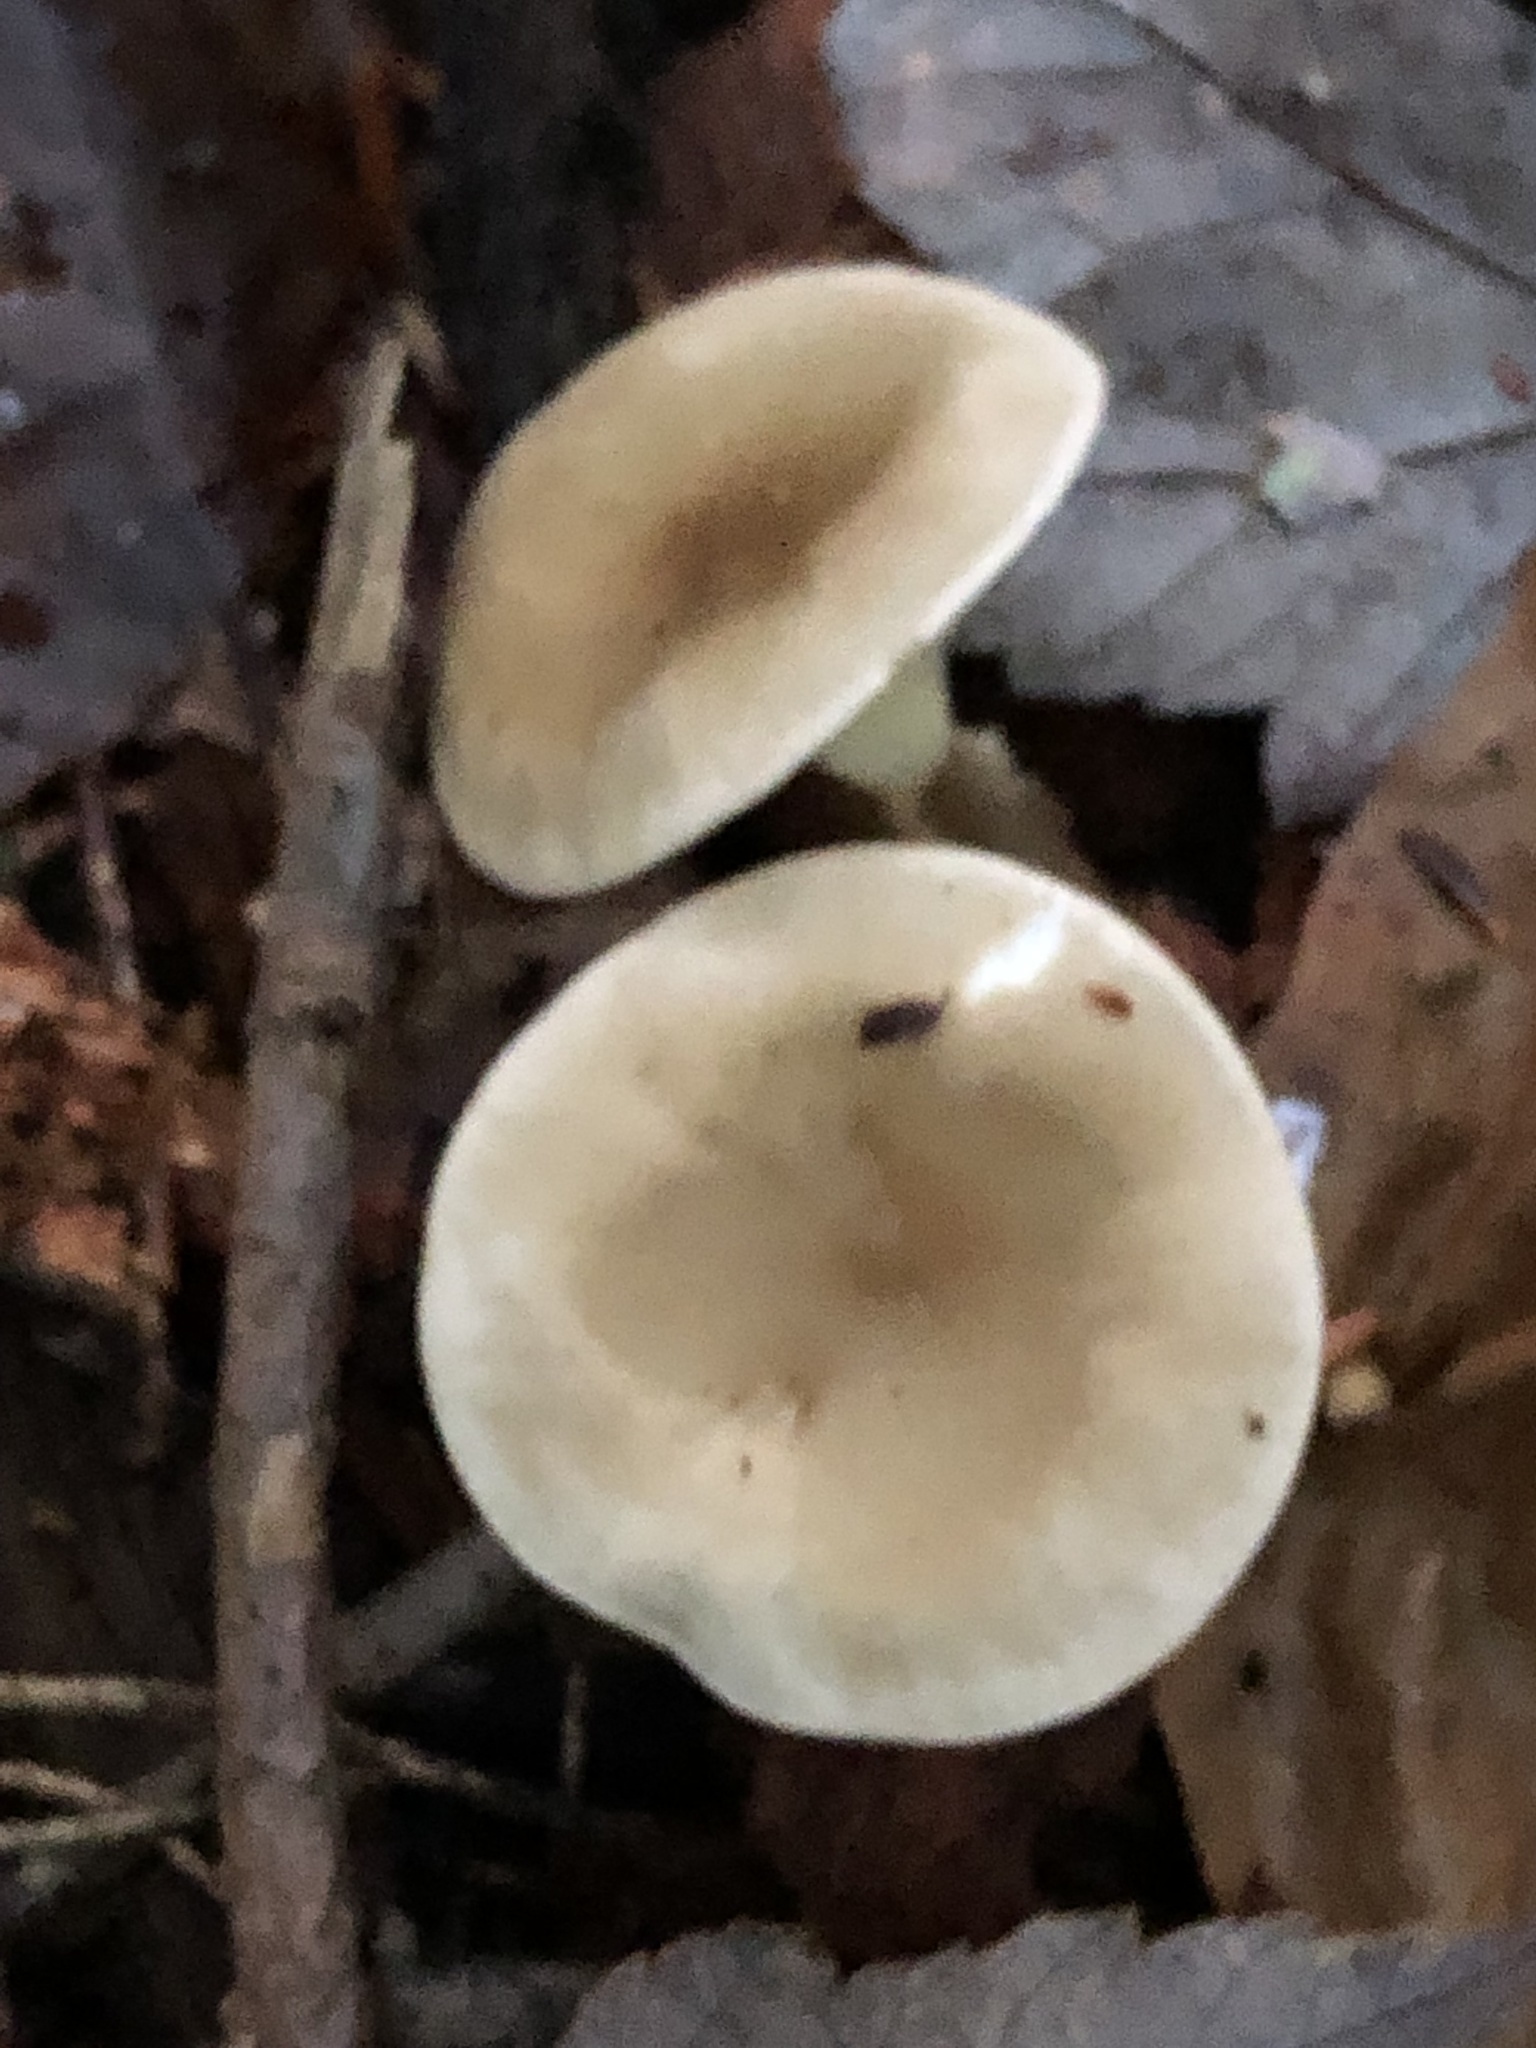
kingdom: Fungi
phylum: Basidiomycota
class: Agaricomycetes
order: Agaricales
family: Hygrophoraceae
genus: Ampulloclitocybe
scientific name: Ampulloclitocybe clavipes
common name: Club foot
